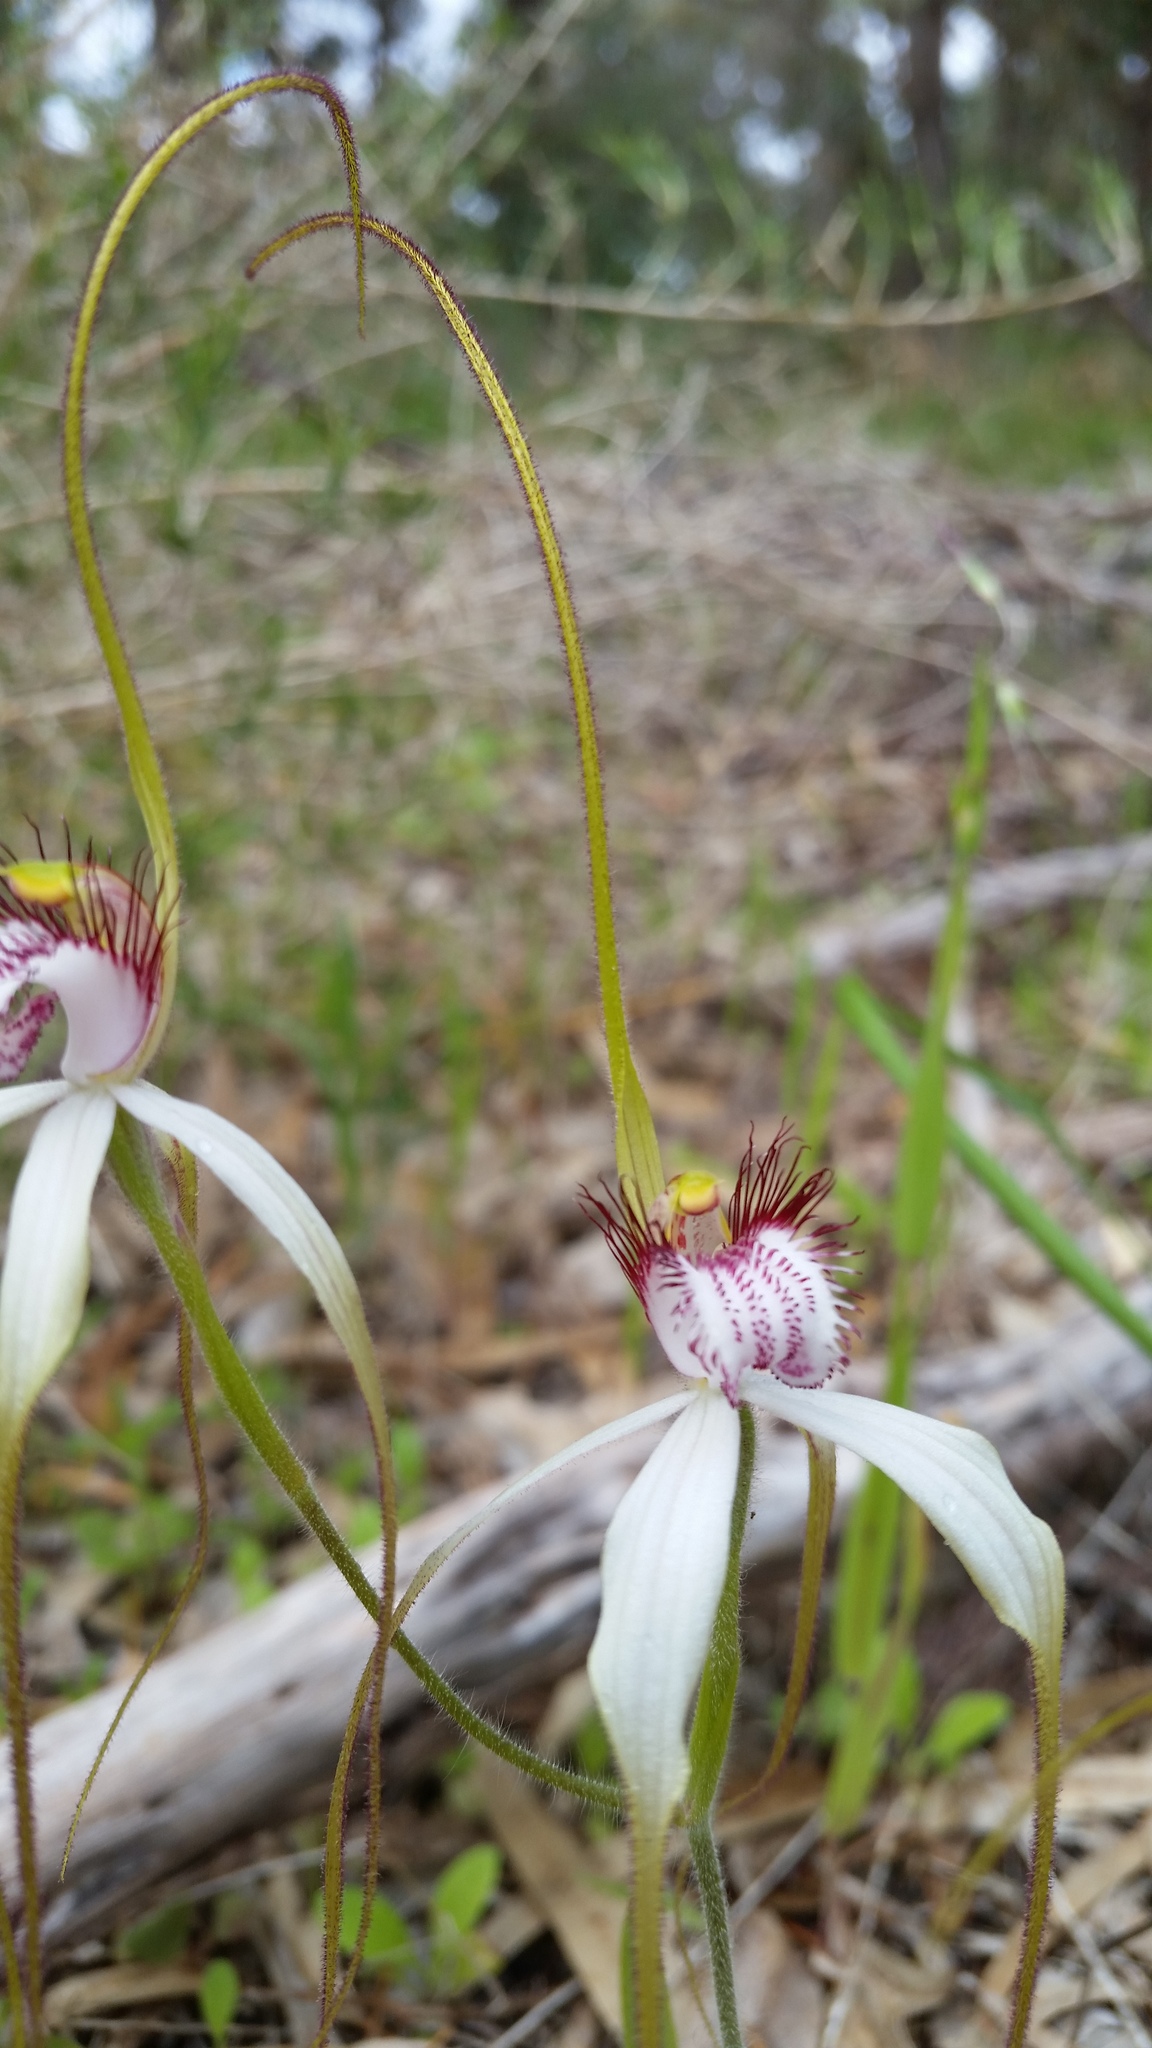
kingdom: Plantae
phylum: Tracheophyta
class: Liliopsida
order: Asparagales
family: Orchidaceae
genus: Caladenia
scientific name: Caladenia longicauda
